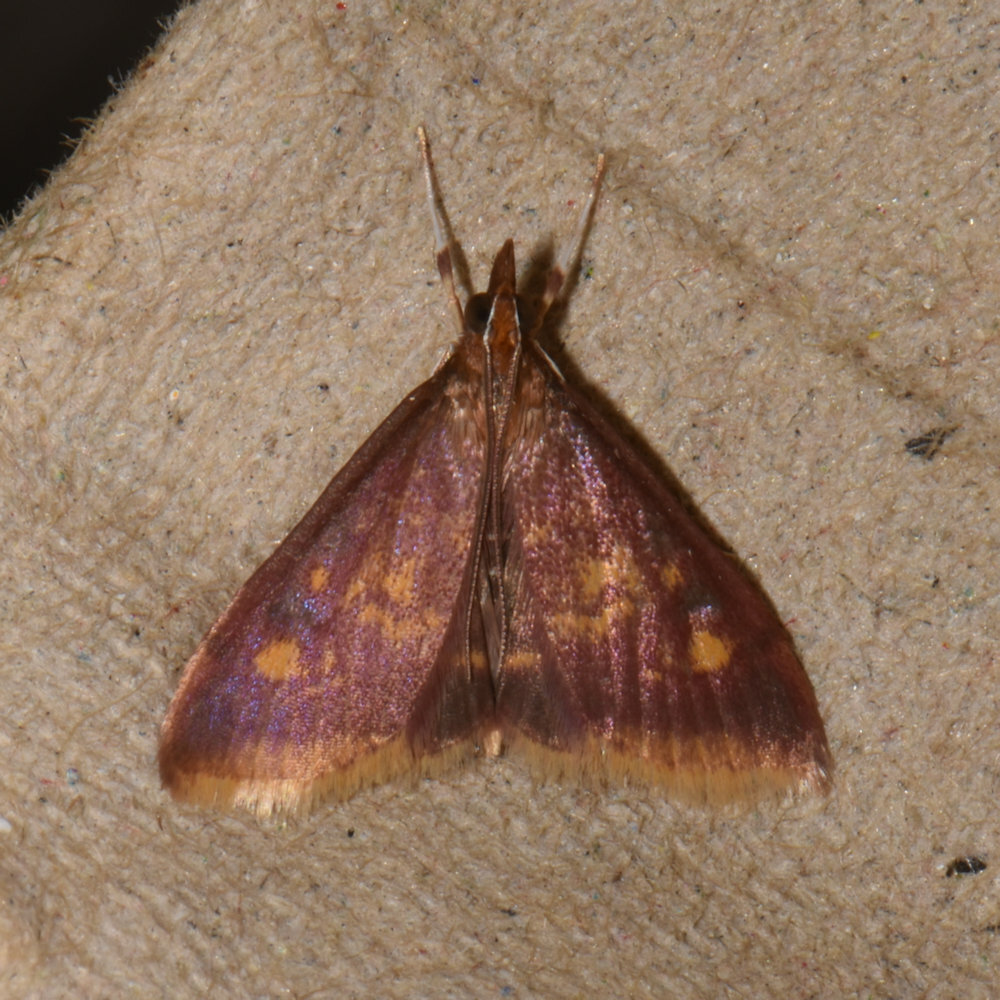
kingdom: Animalia
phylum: Arthropoda
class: Insecta
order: Lepidoptera
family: Crambidae
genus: Pyrausta
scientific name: Pyrausta acrionalis
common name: Mint-loving pyrausta moth
